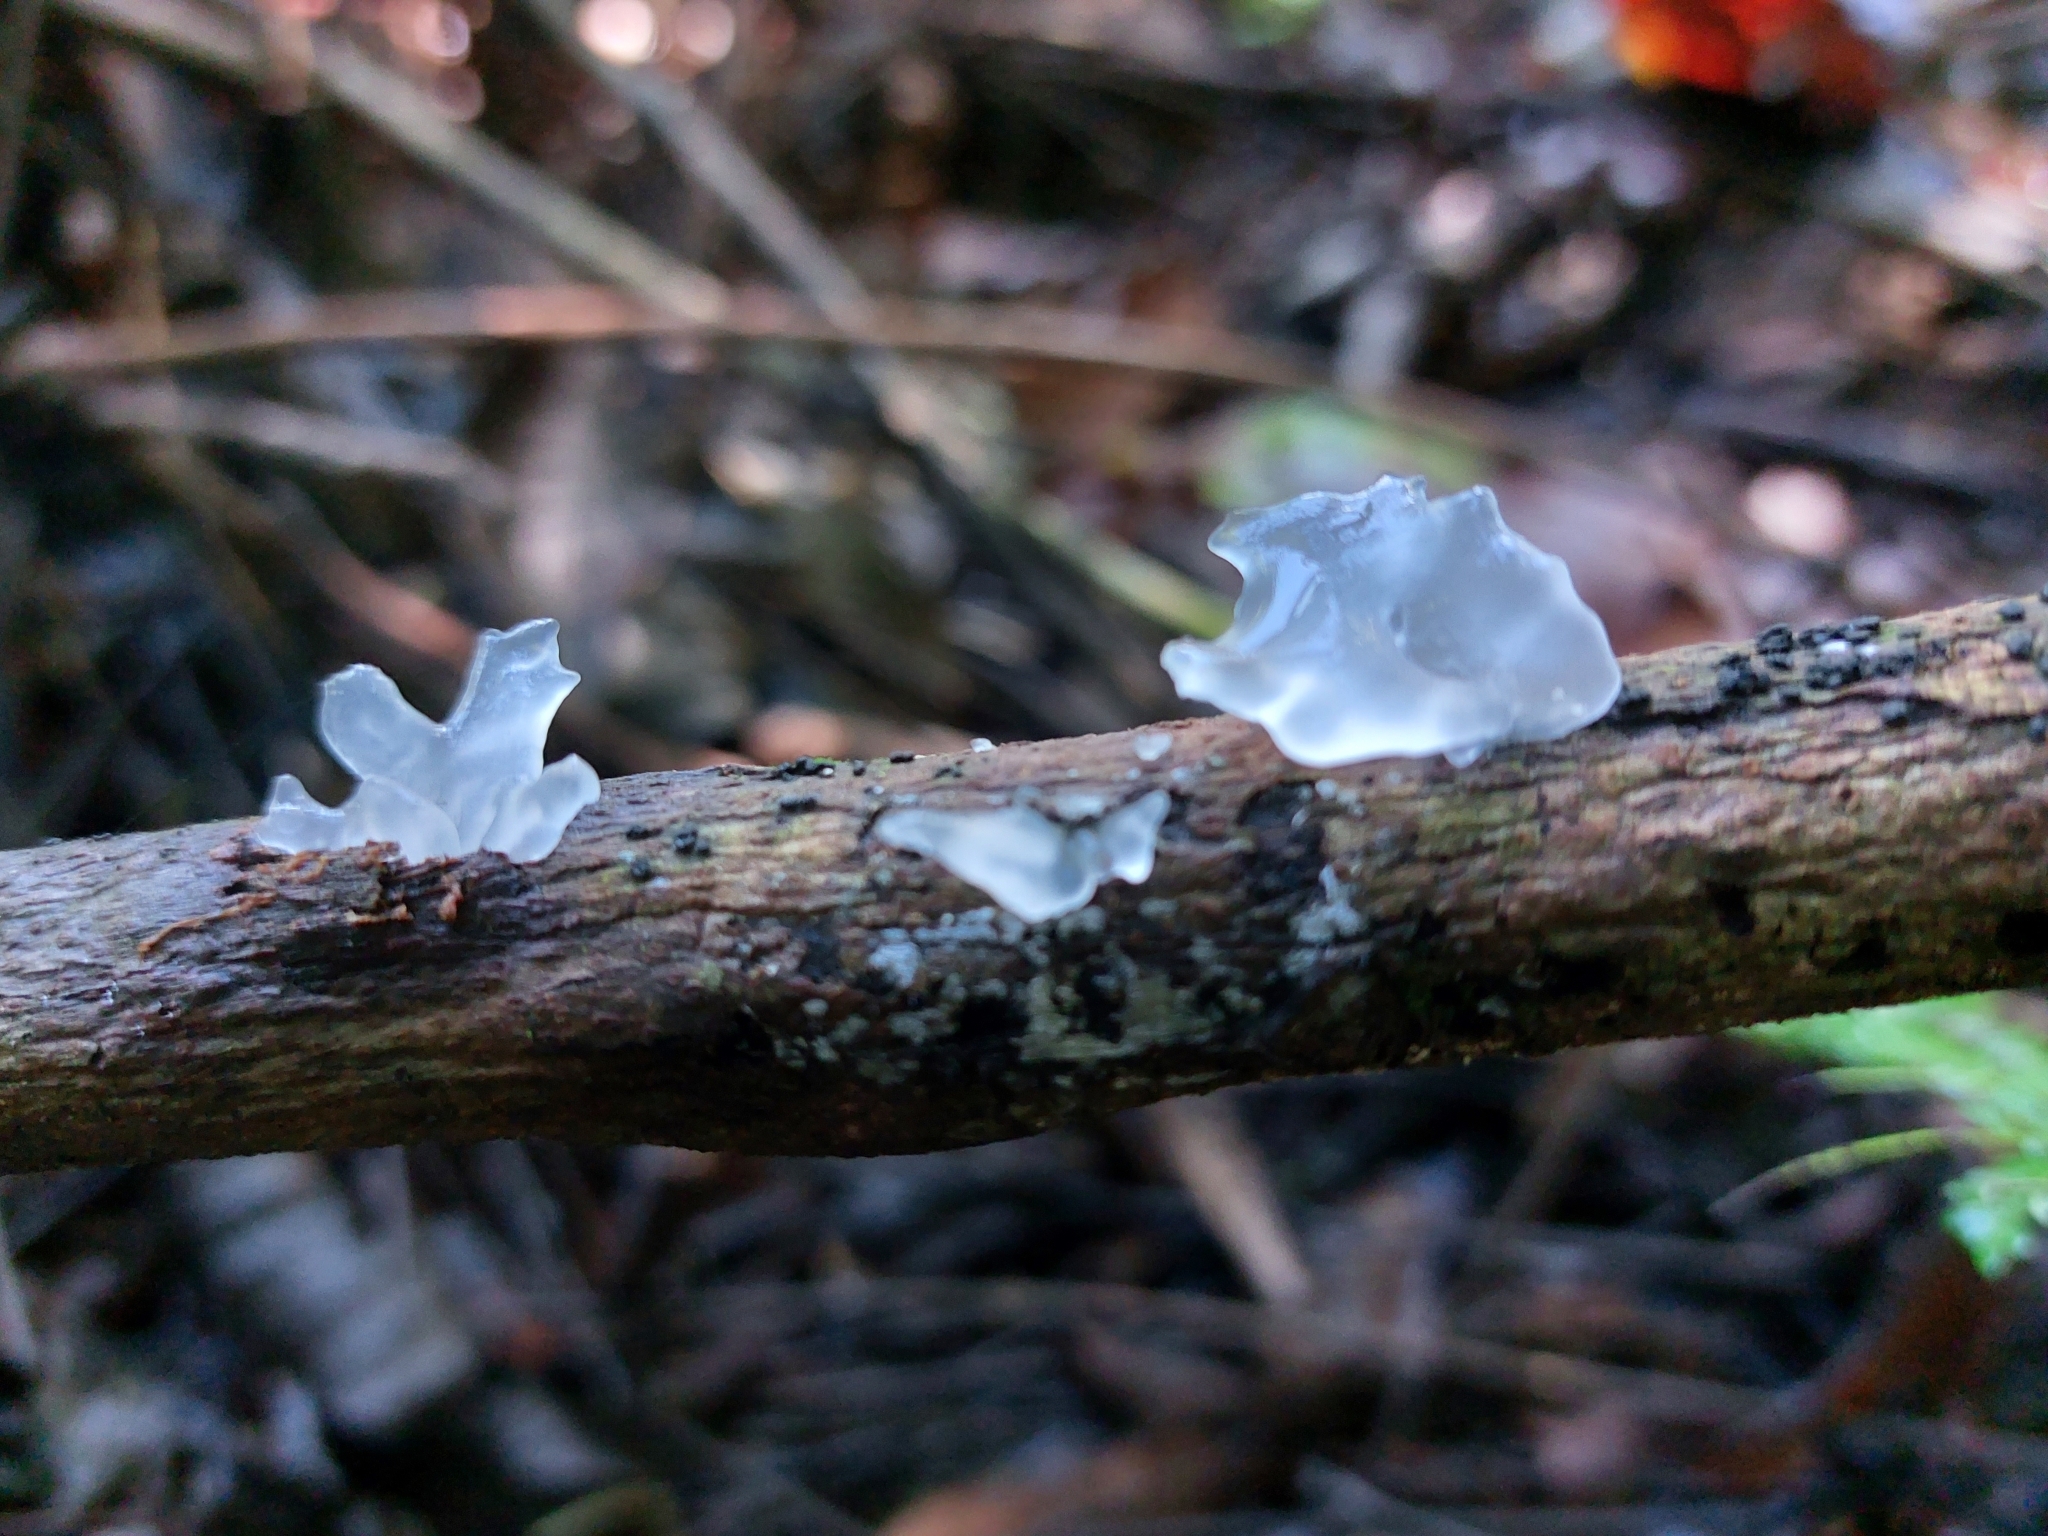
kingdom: Fungi
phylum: Basidiomycota
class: Tremellomycetes
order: Tremellales
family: Tremellaceae
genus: Tremella
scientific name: Tremella fuciformis
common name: Snow fungus
